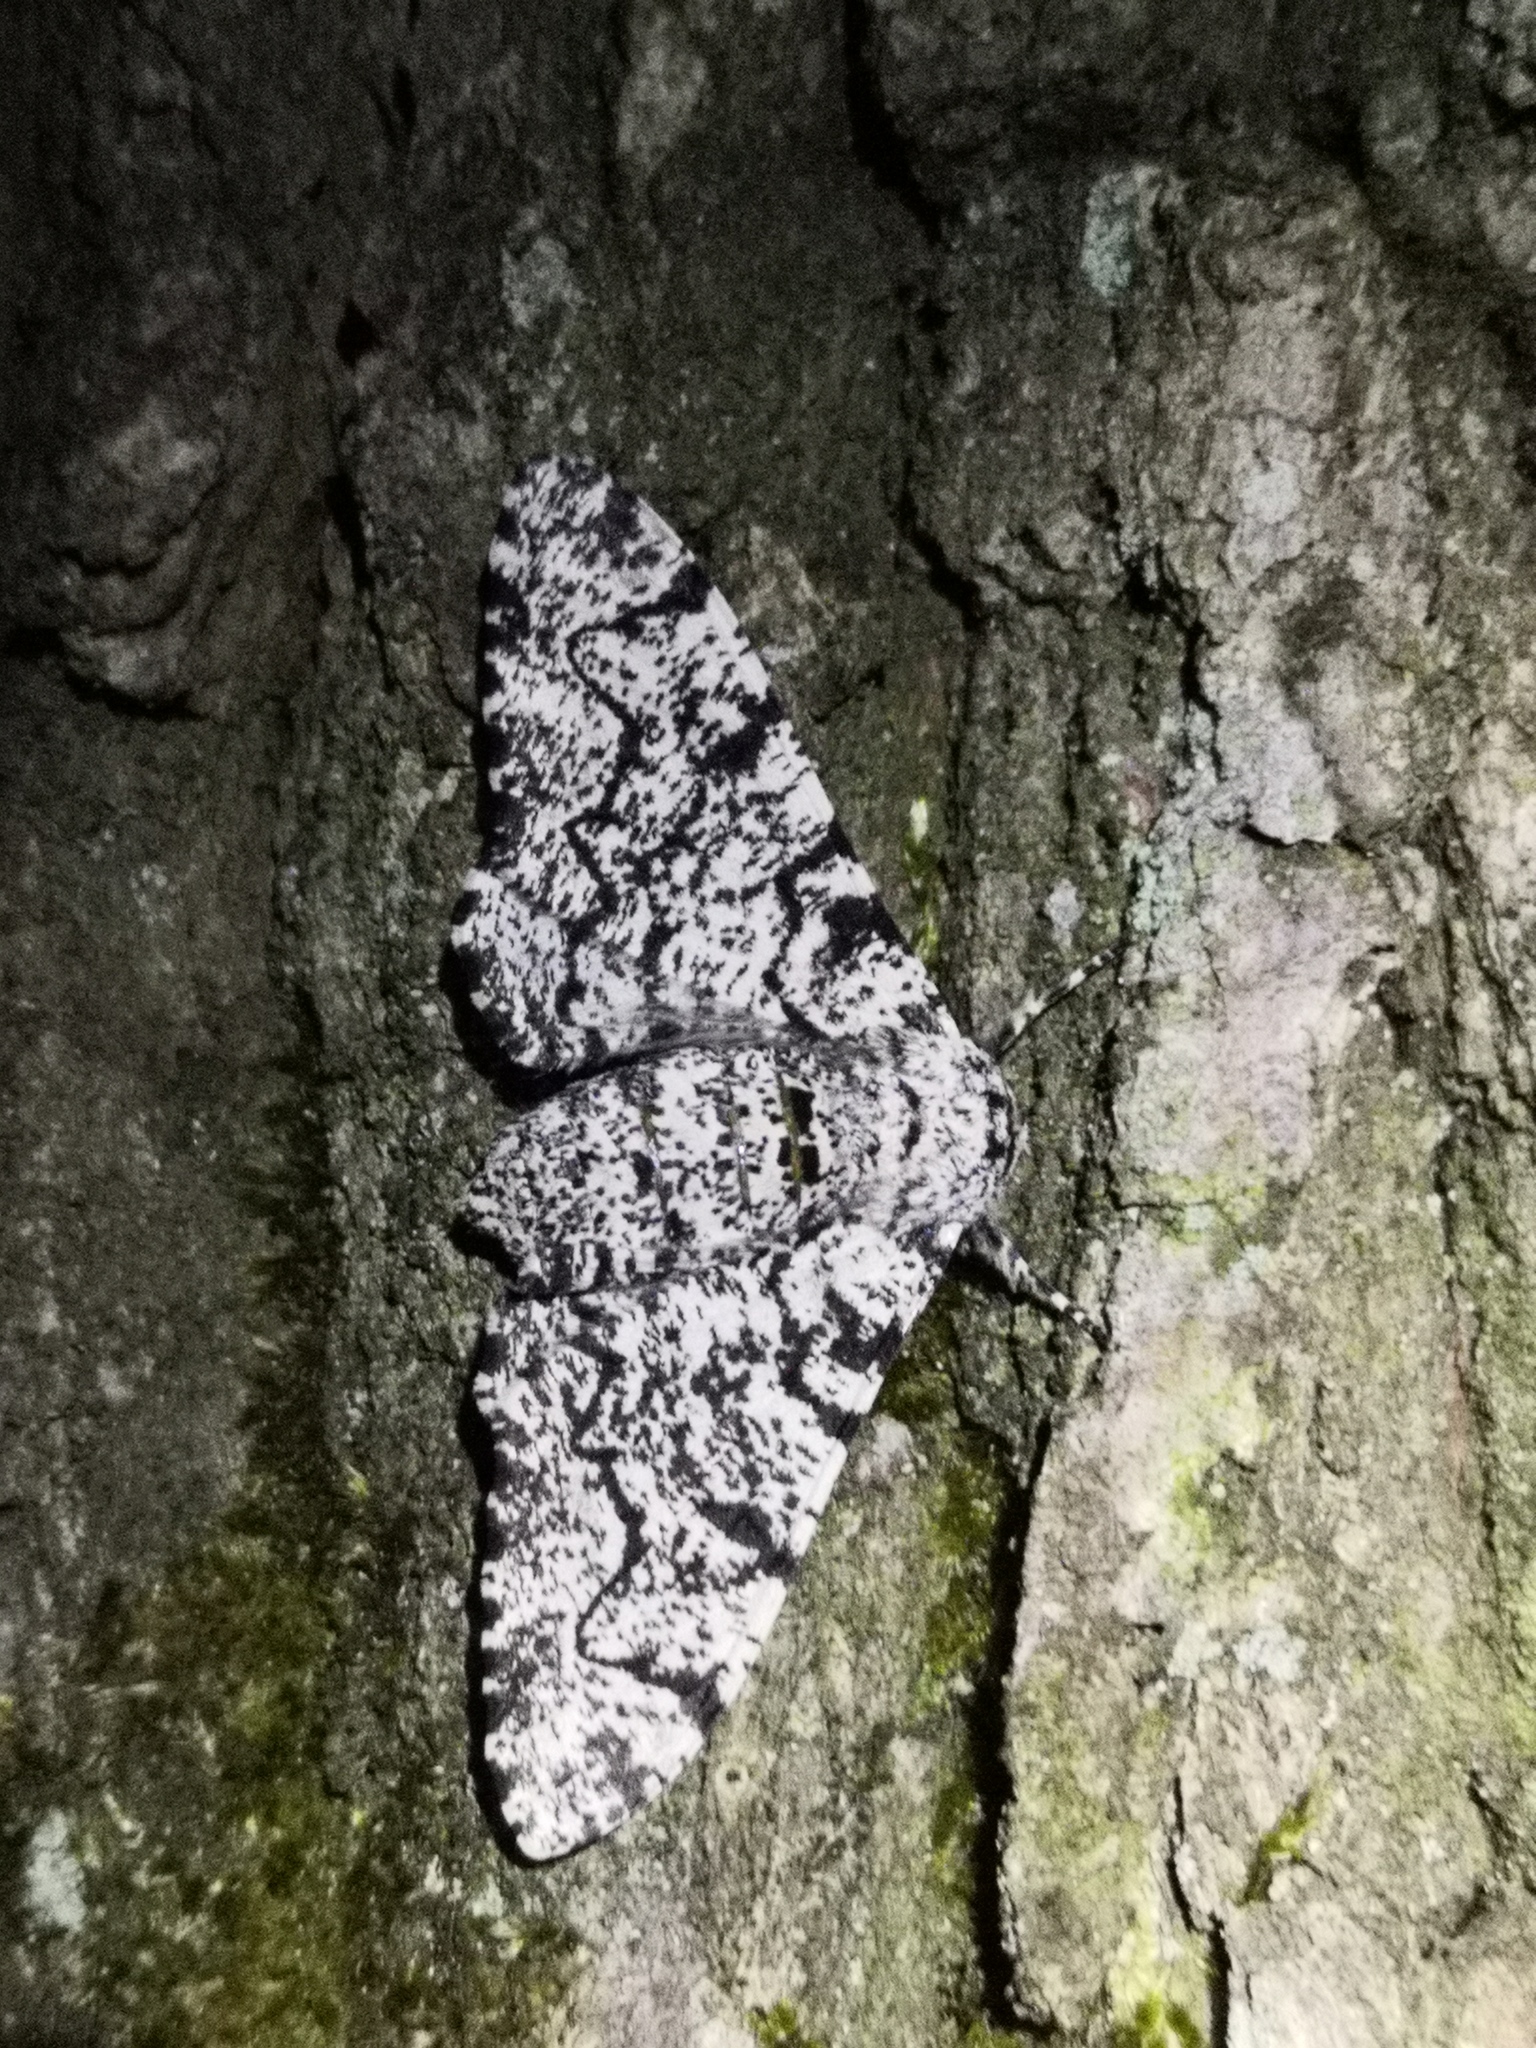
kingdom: Animalia
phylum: Arthropoda
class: Insecta
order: Lepidoptera
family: Geometridae
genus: Biston
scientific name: Biston betularia
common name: Peppered moth
